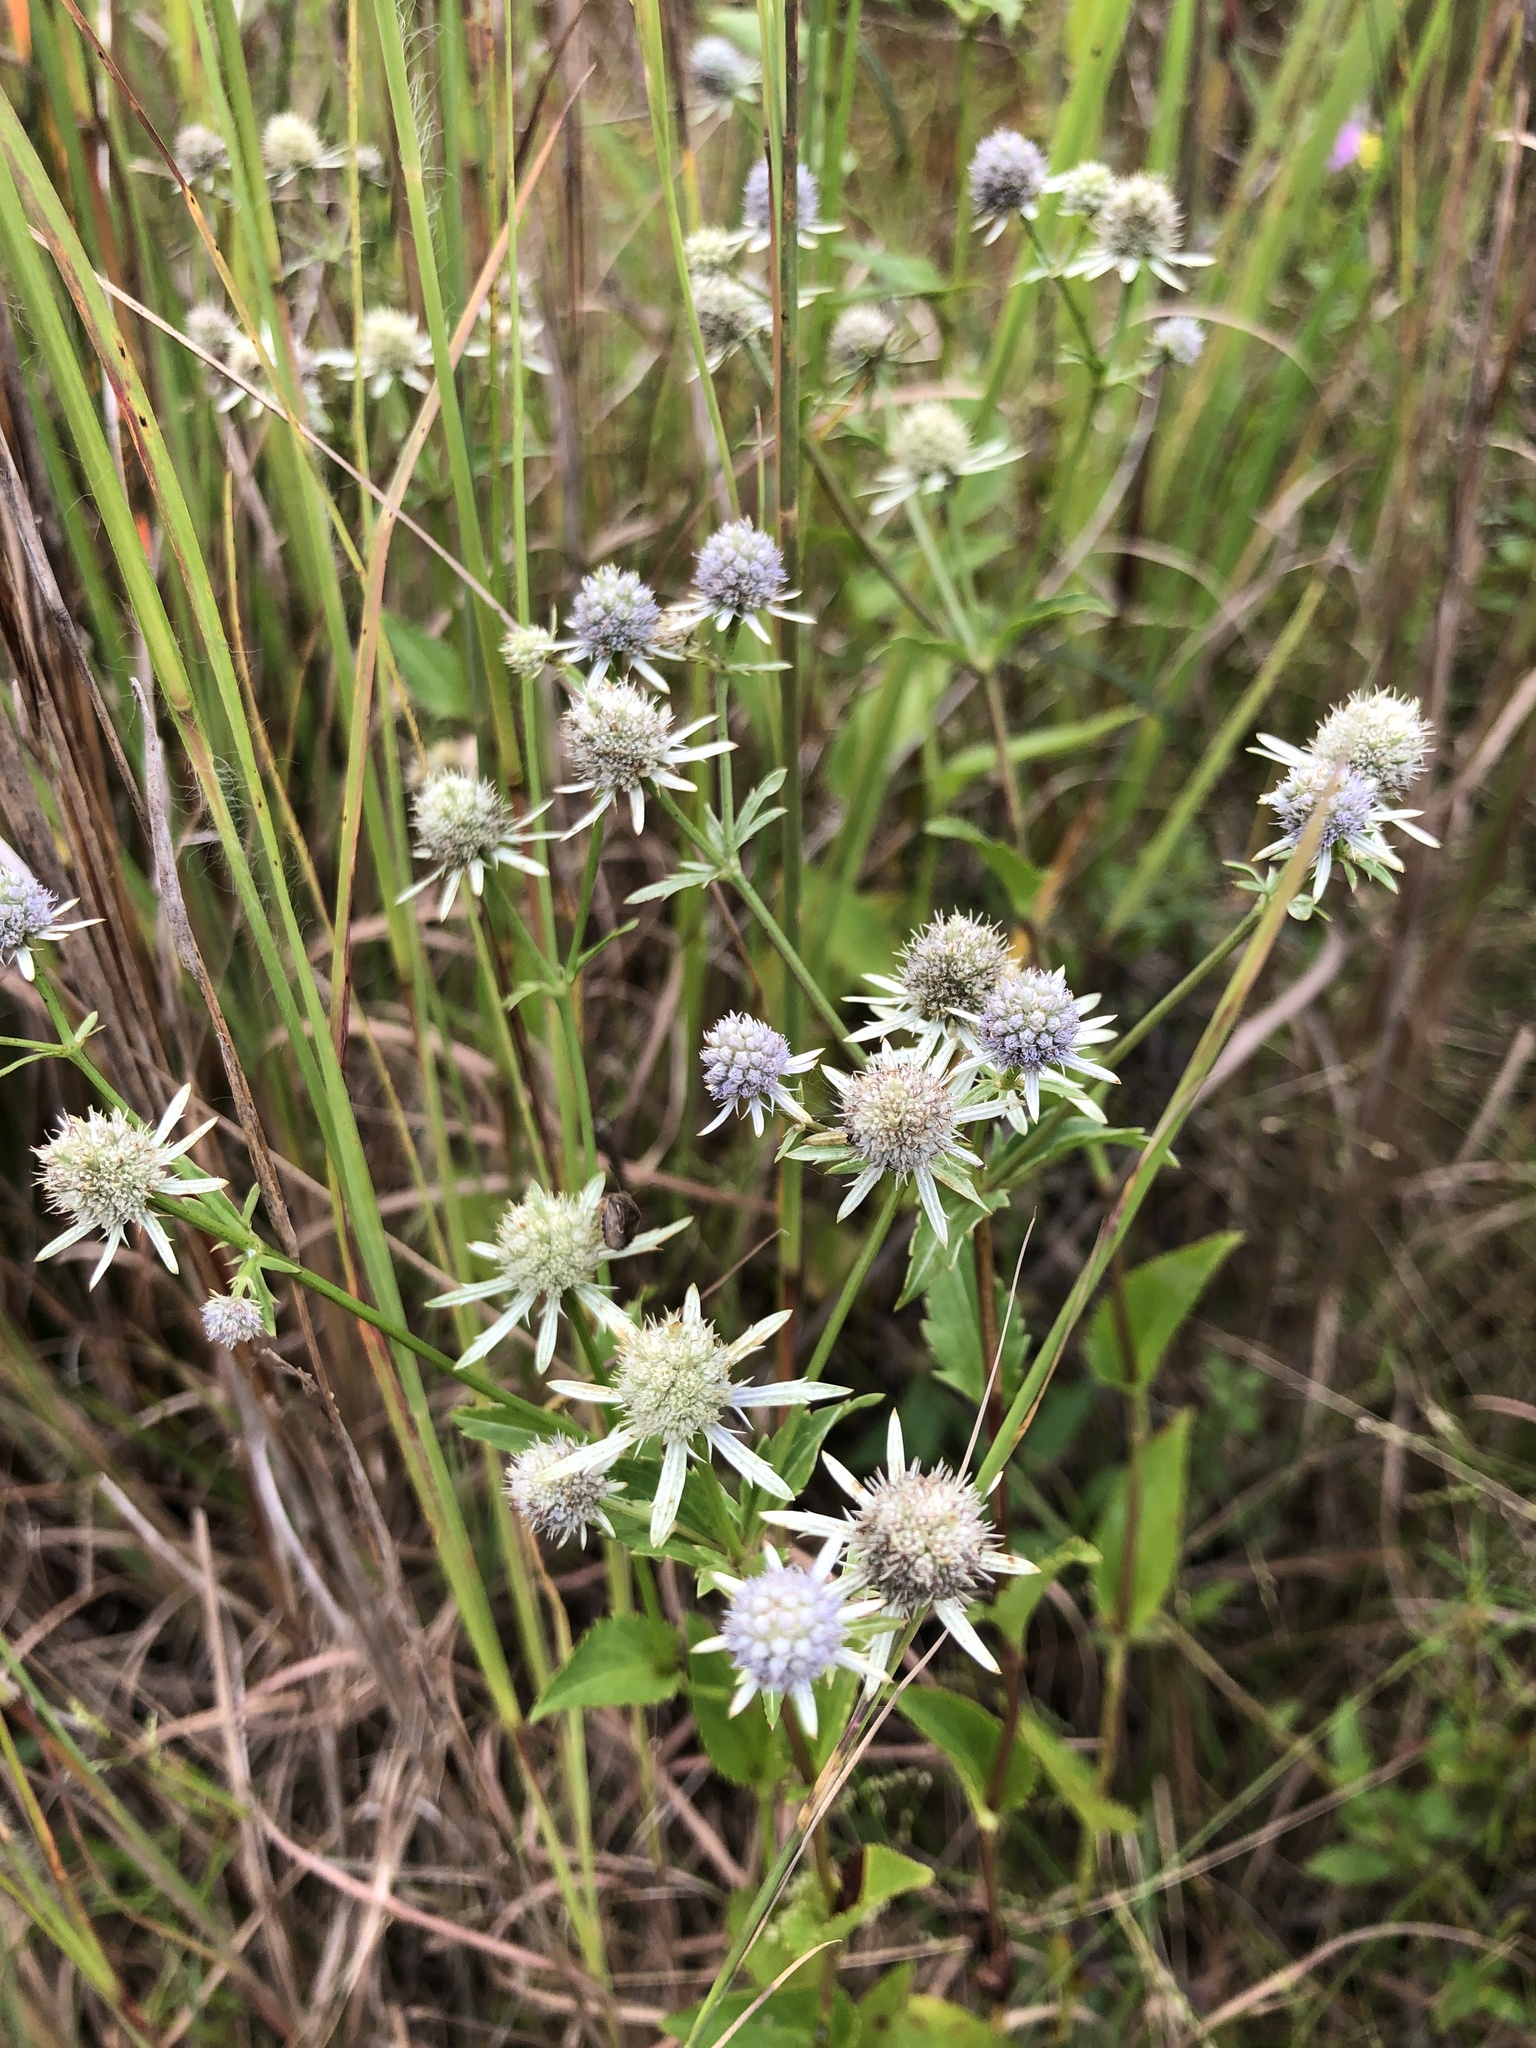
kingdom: Plantae
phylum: Tracheophyta
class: Magnoliopsida
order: Apiales
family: Apiaceae
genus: Eryngium
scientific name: Eryngium integrifolium
